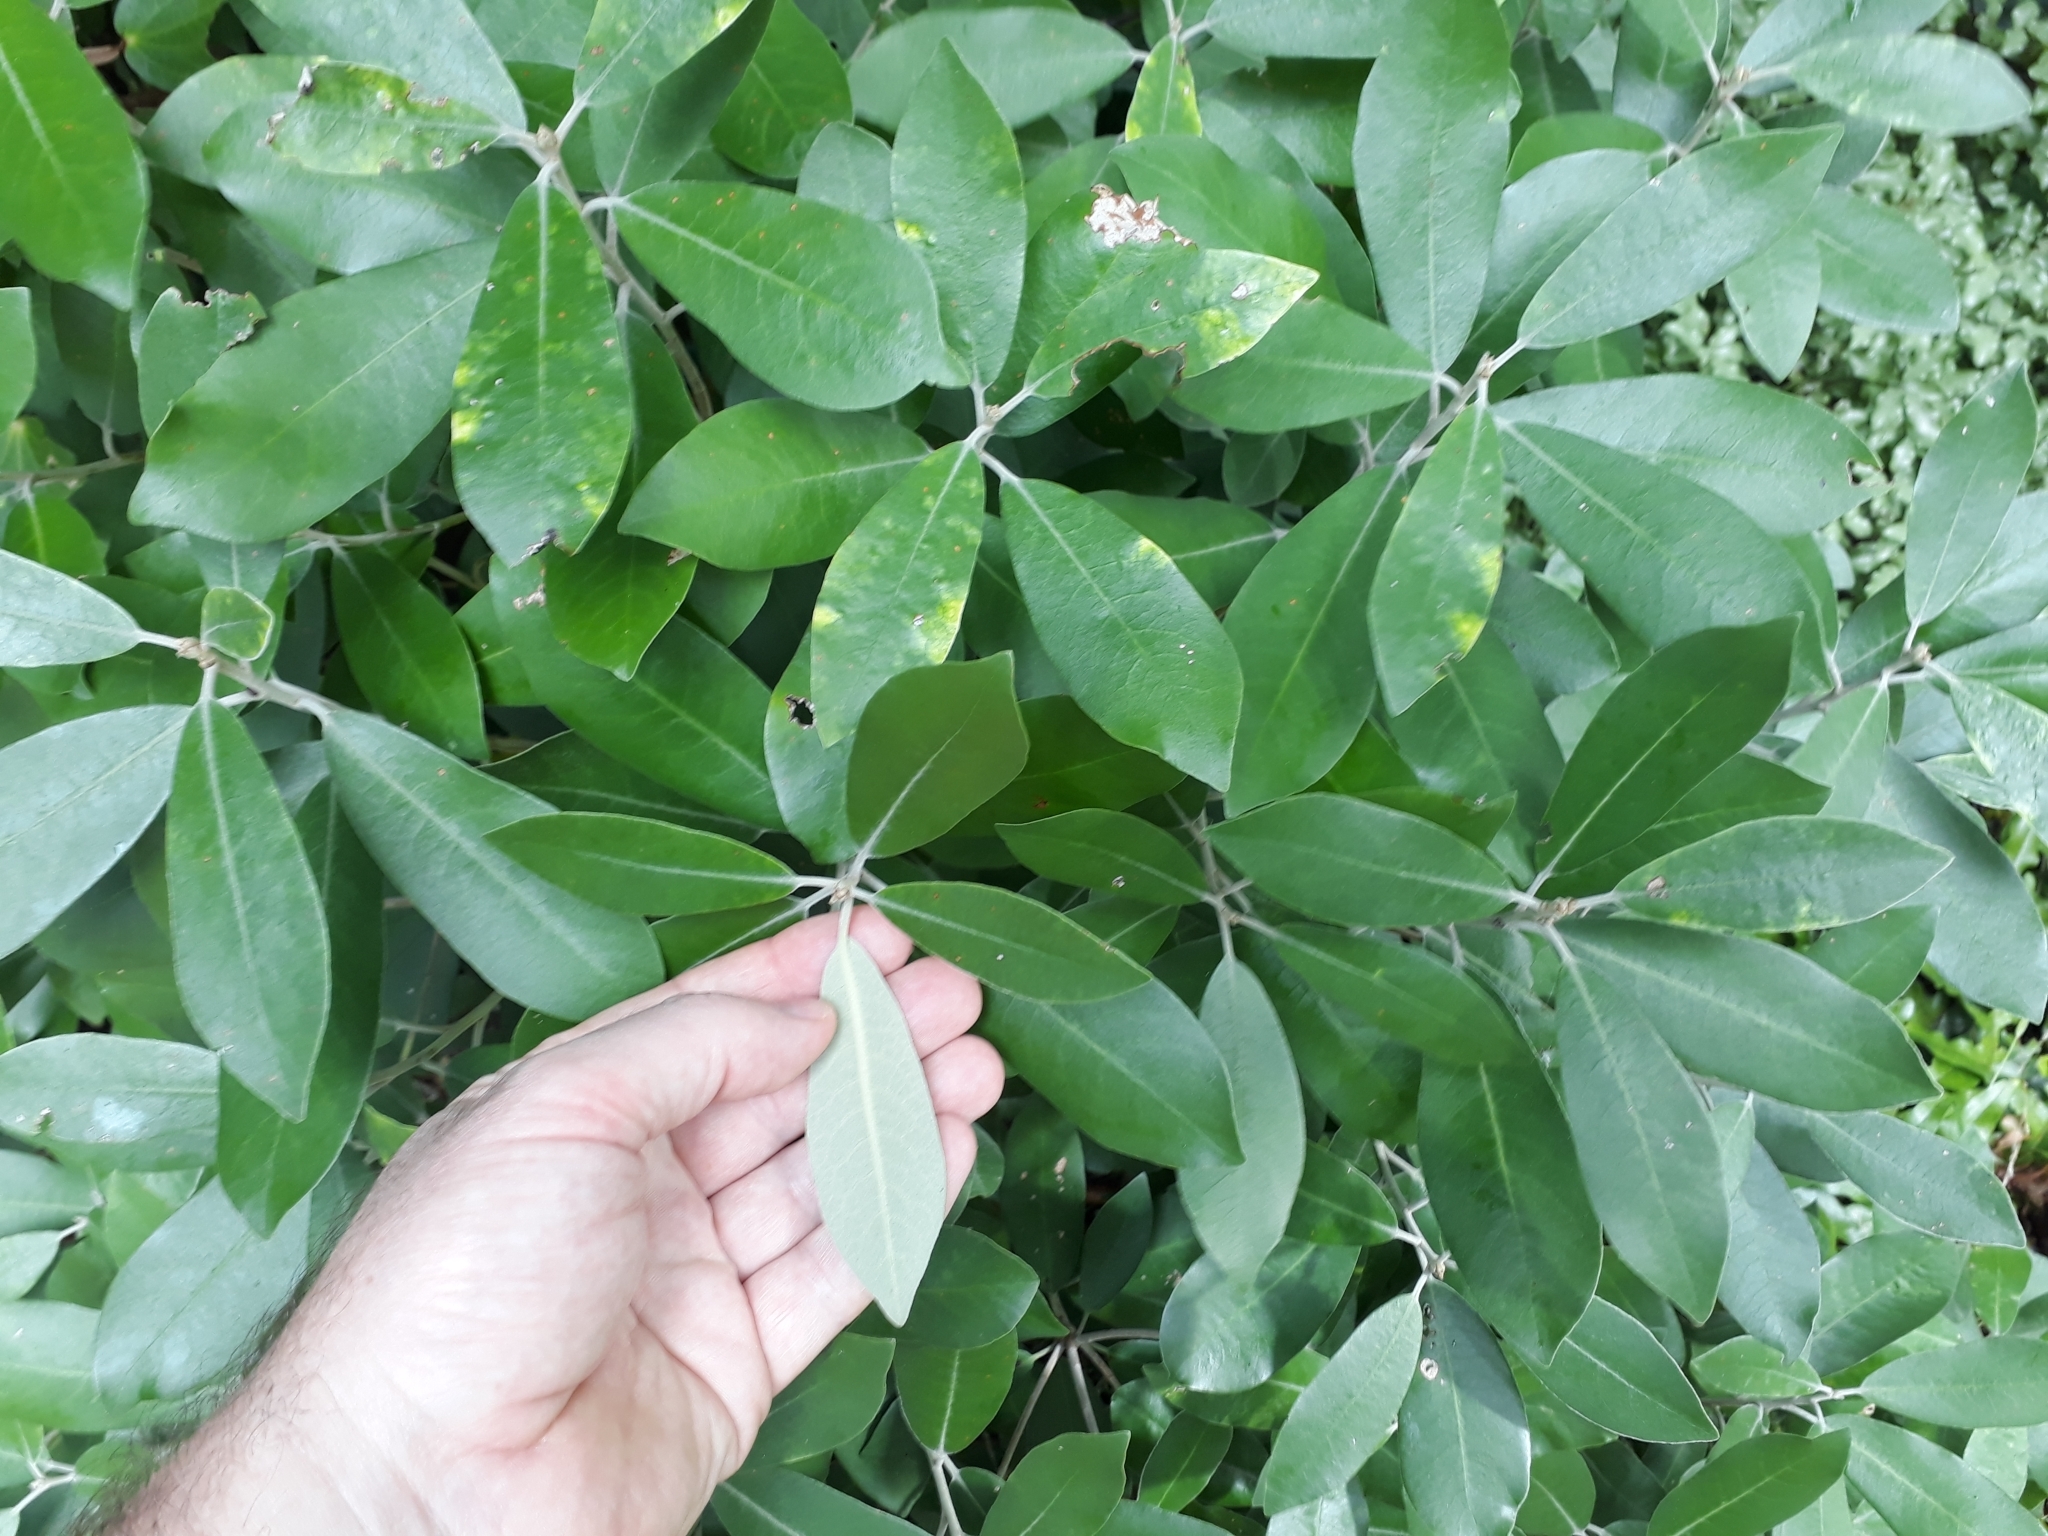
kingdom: Plantae
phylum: Tracheophyta
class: Magnoliopsida
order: Apiales
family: Pittosporaceae
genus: Pittosporum
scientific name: Pittosporum ralphii
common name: Ralph's desertwillow
